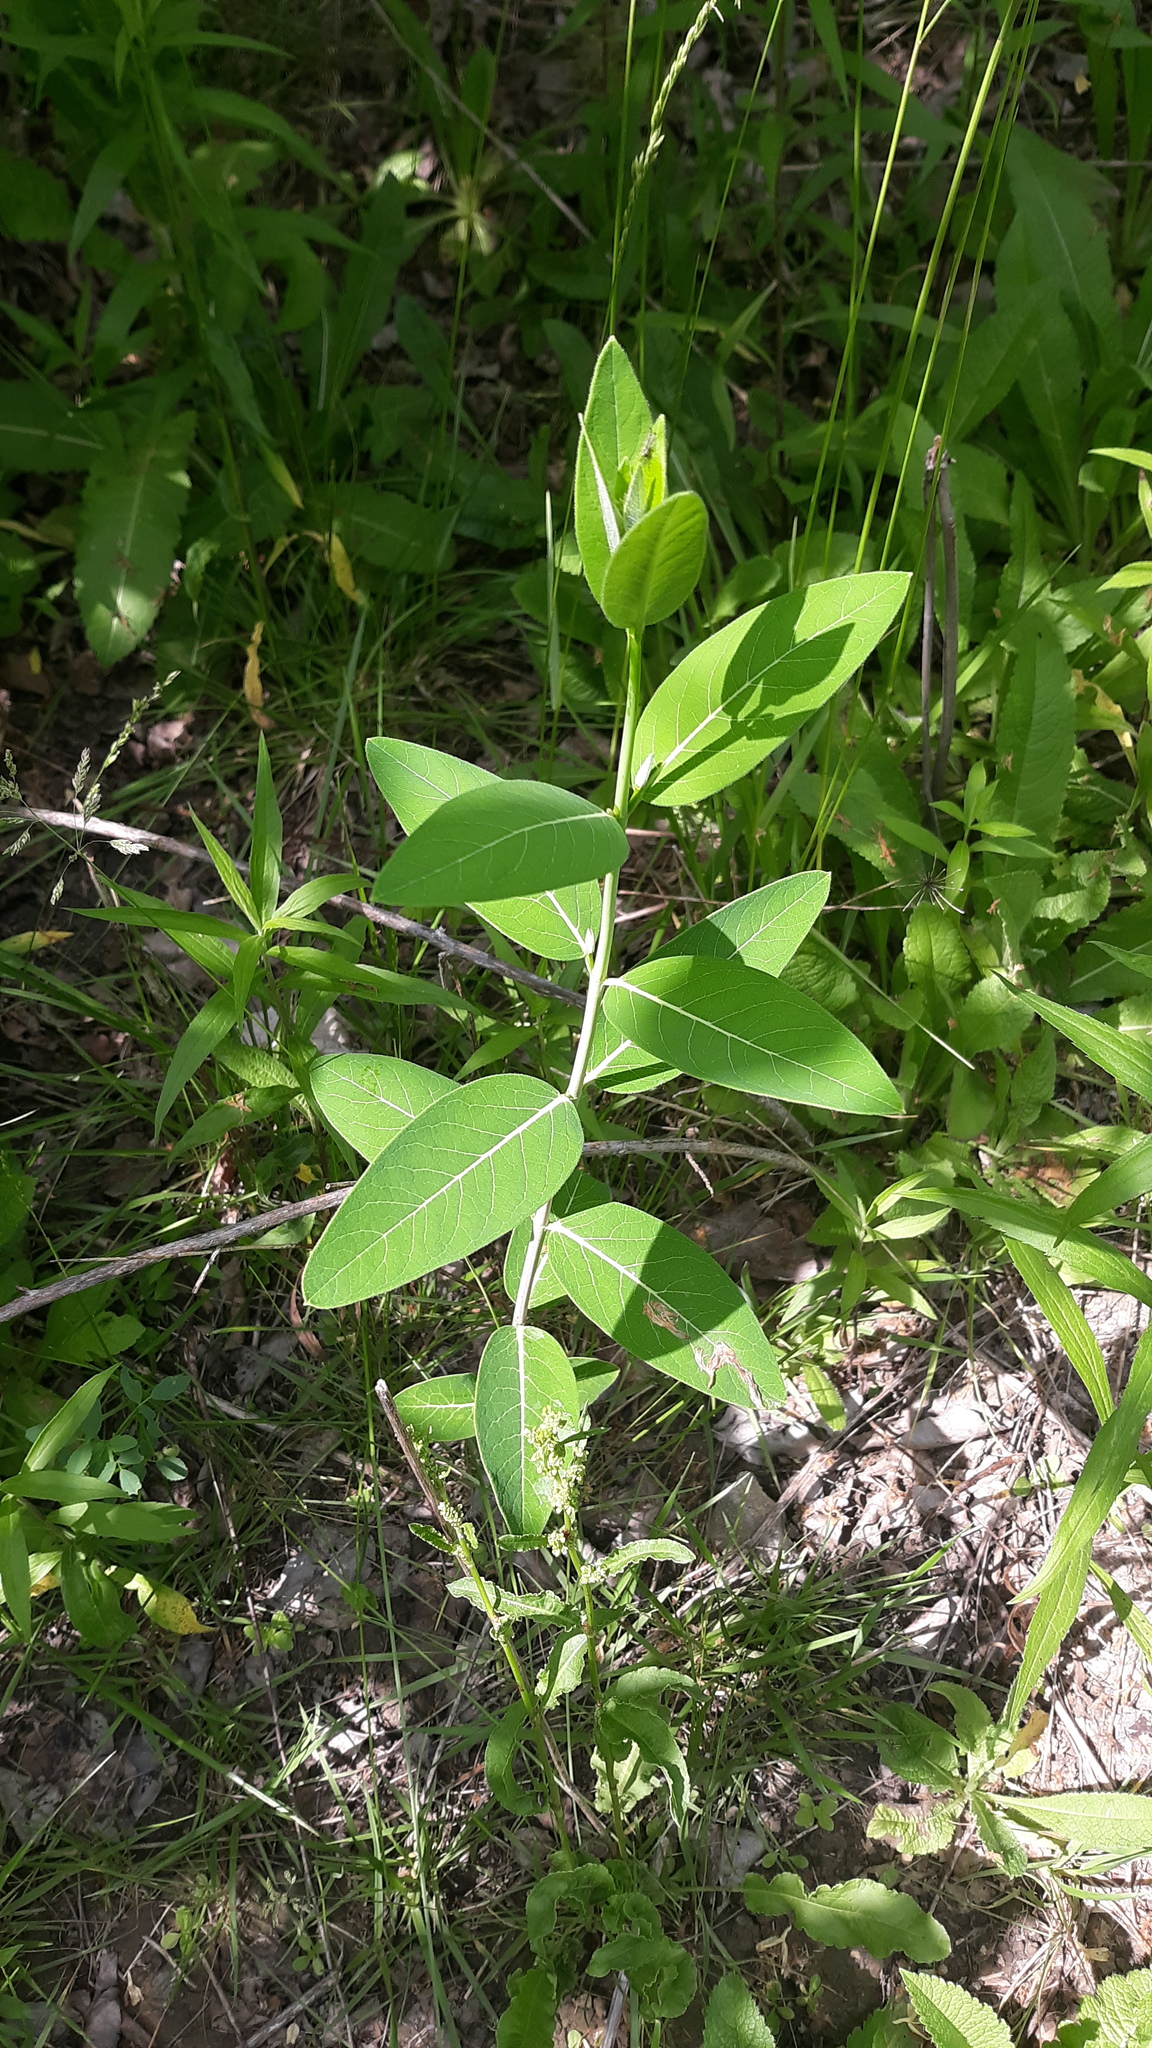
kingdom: Plantae
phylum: Tracheophyta
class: Magnoliopsida
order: Gentianales
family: Apocynaceae
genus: Apocynum
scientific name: Apocynum cannabinum
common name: Hemp dogbane
